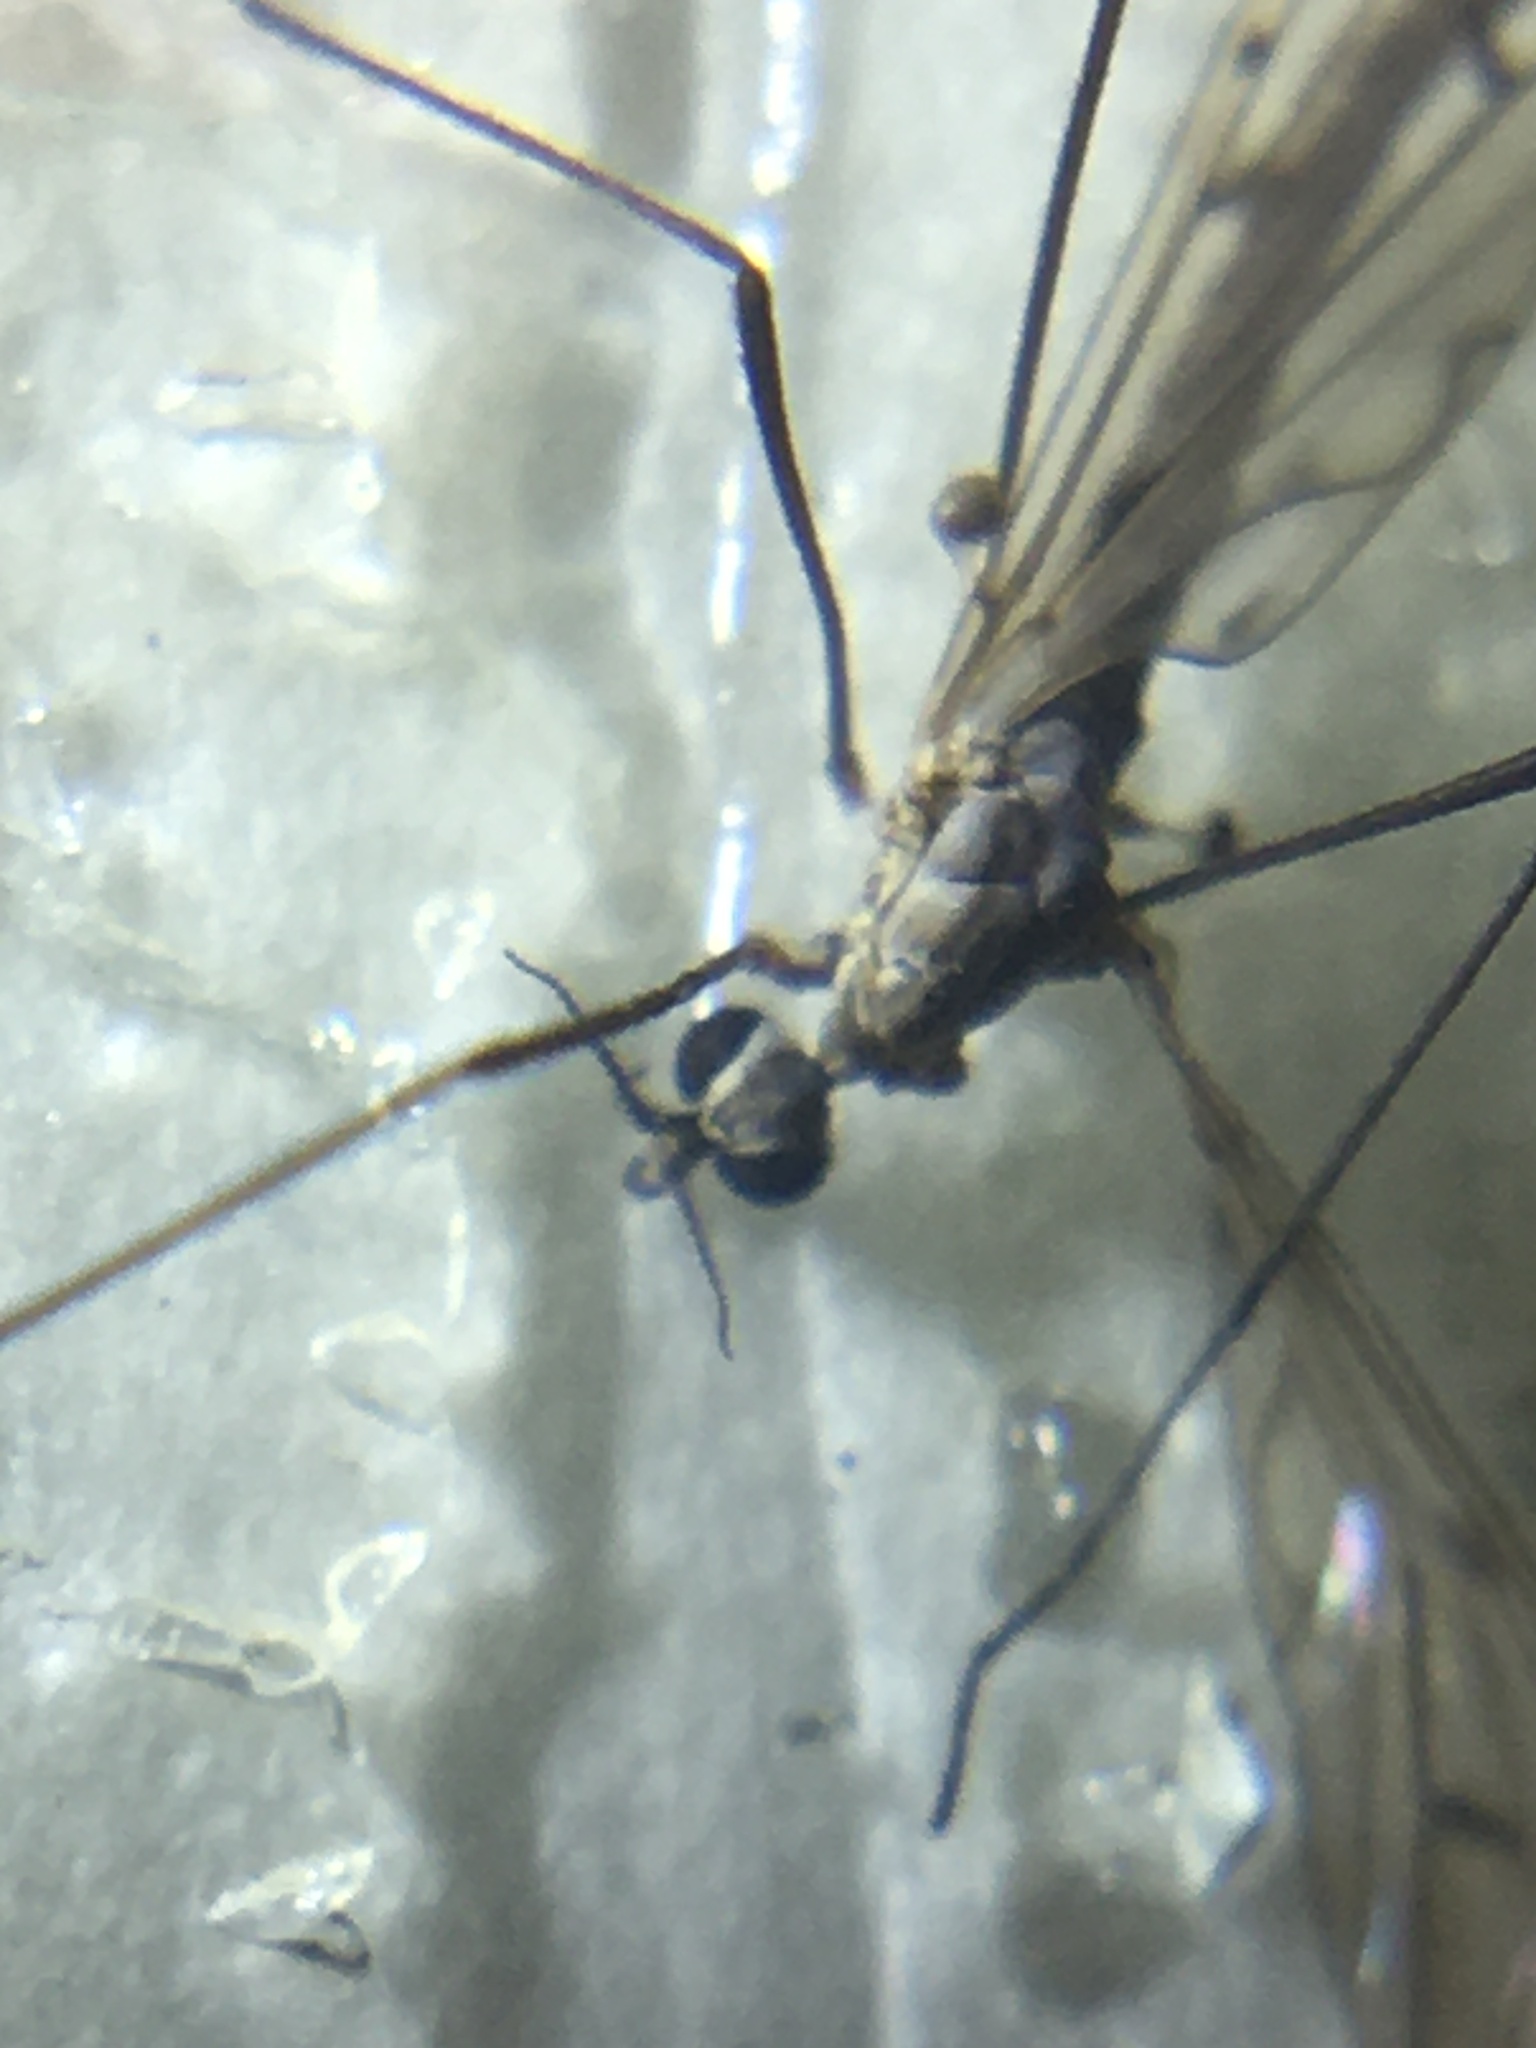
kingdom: Animalia
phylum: Arthropoda
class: Insecta
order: Diptera
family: Limoniidae
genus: Symplecta
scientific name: Symplecta cana
